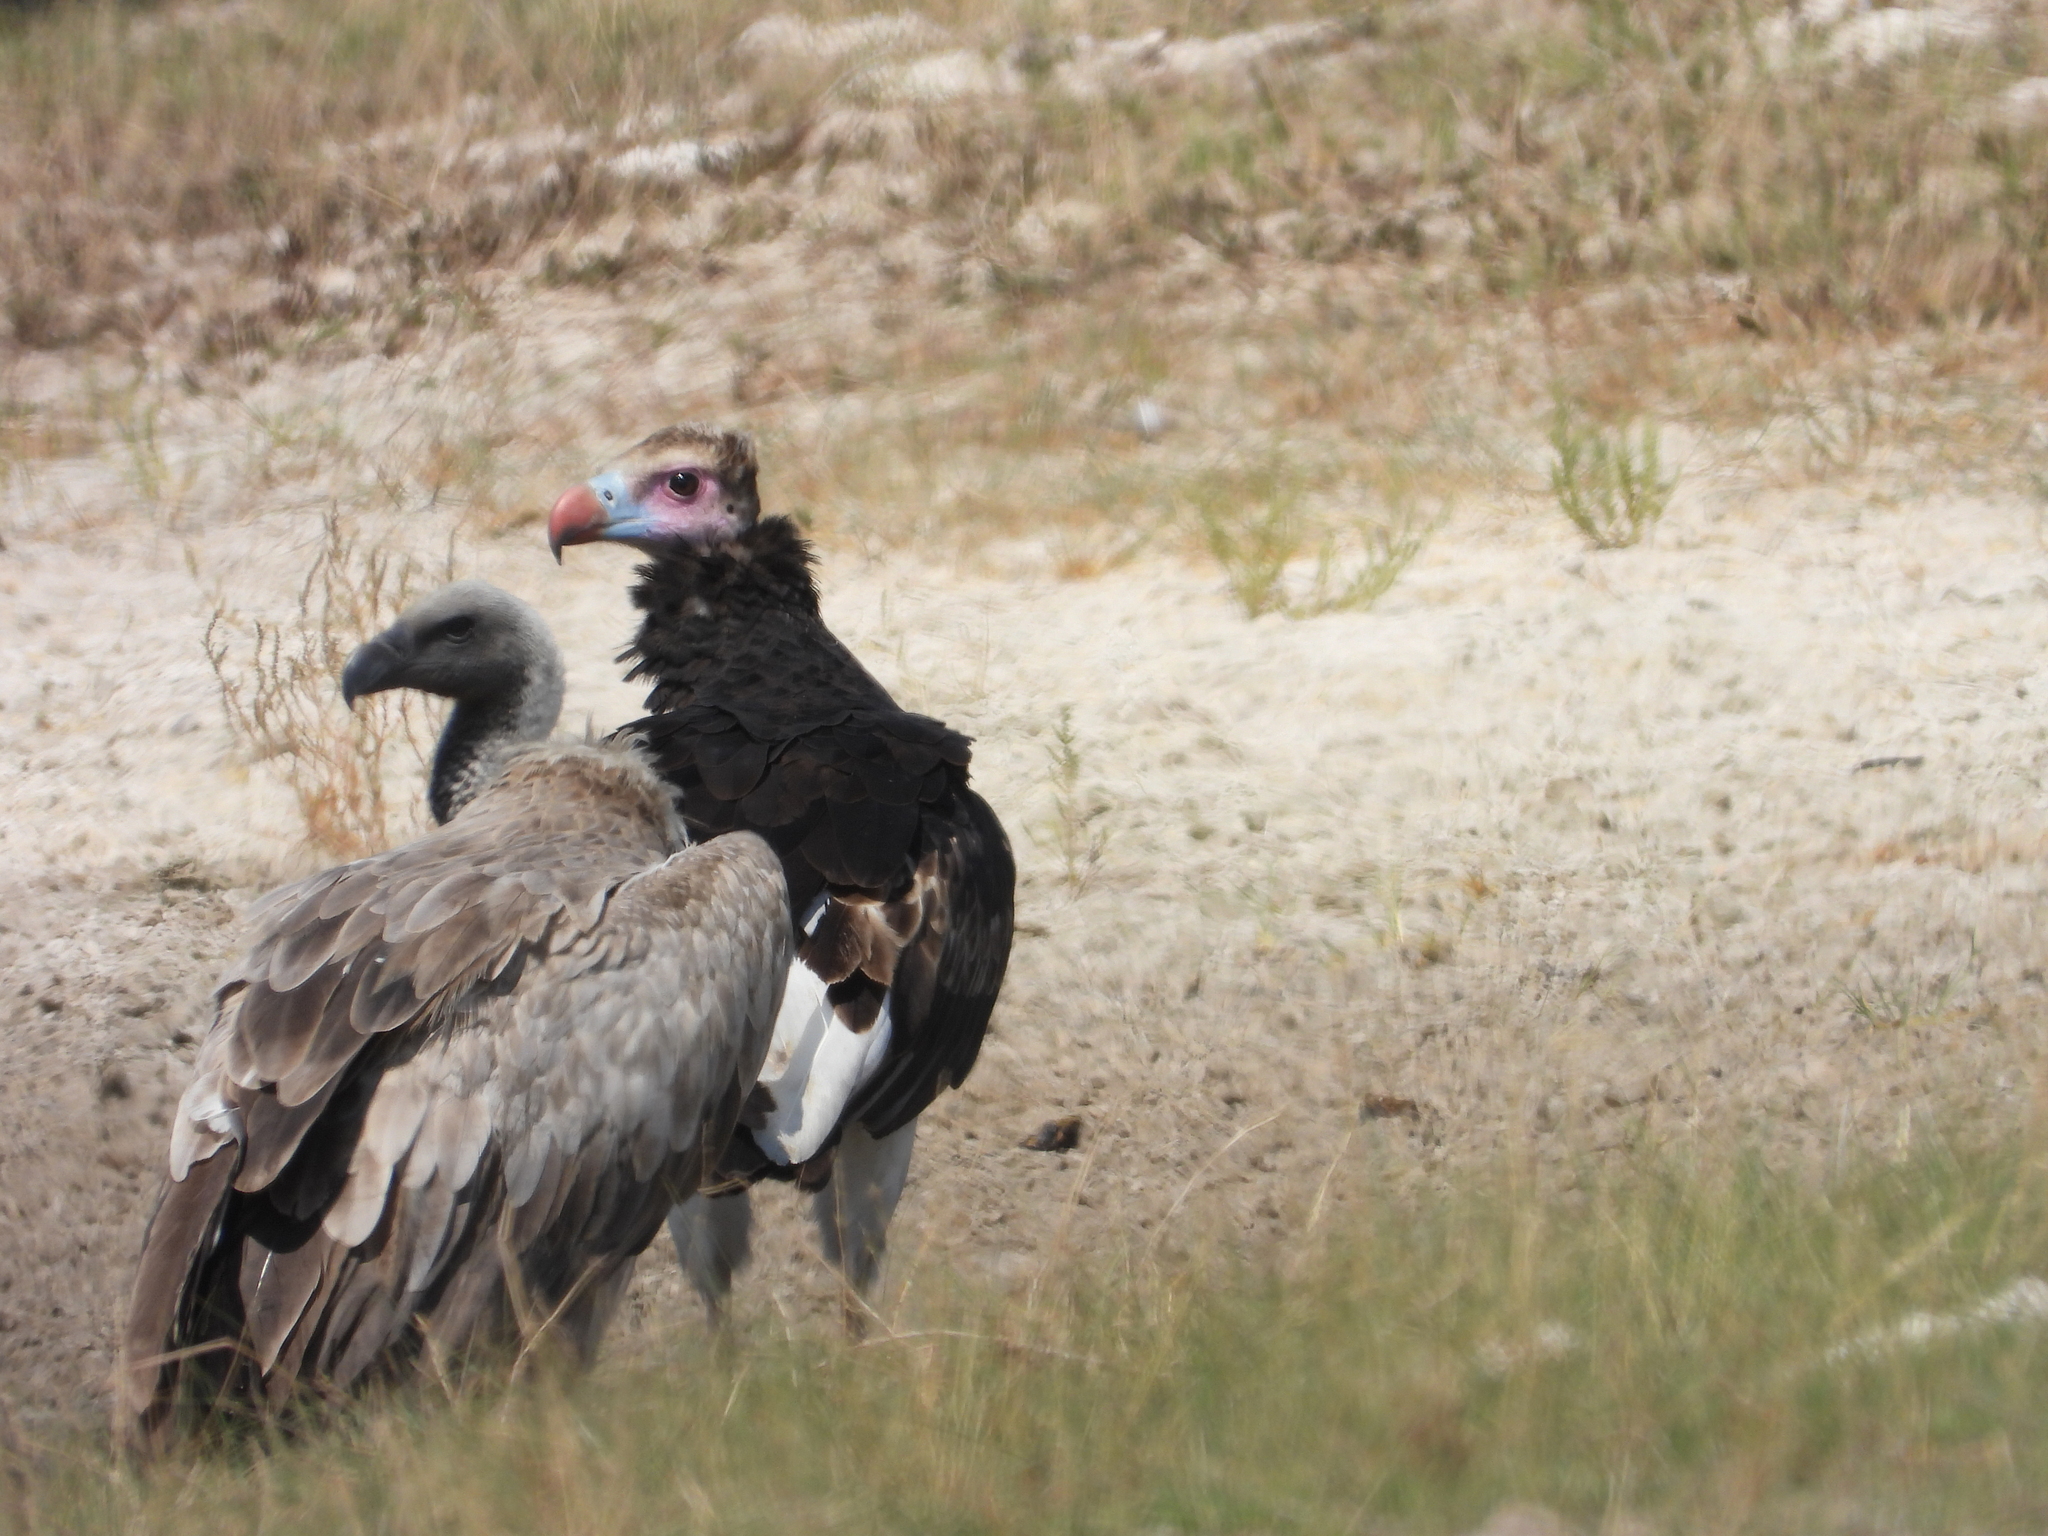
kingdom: Animalia
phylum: Chordata
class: Aves
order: Accipitriformes
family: Accipitridae
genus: Trigonoceps
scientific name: Trigonoceps occipitalis
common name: White-headed vulture
